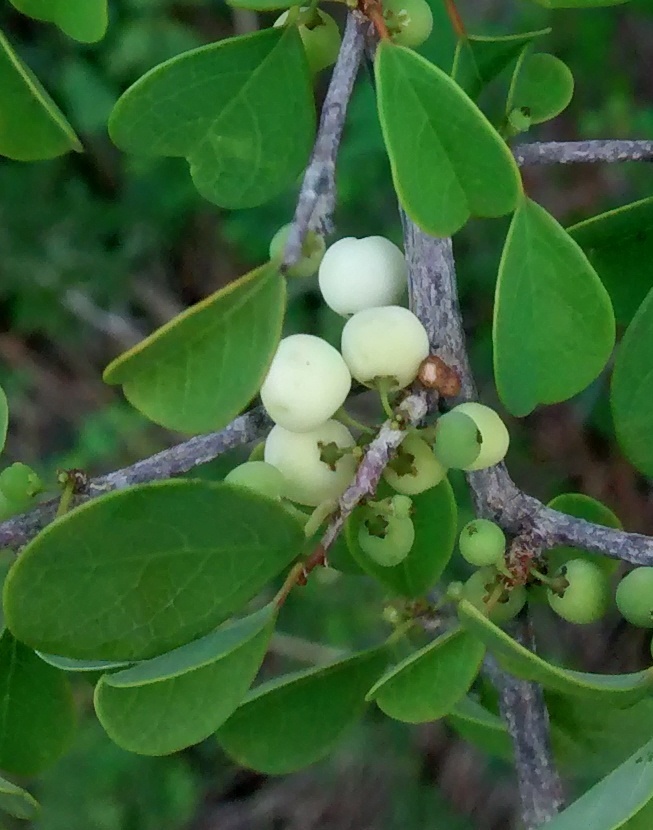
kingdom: Plantae
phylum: Tracheophyta
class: Magnoliopsida
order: Malpighiales
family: Phyllanthaceae
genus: Flueggea
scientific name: Flueggea leucopyrus
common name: Bushweed
